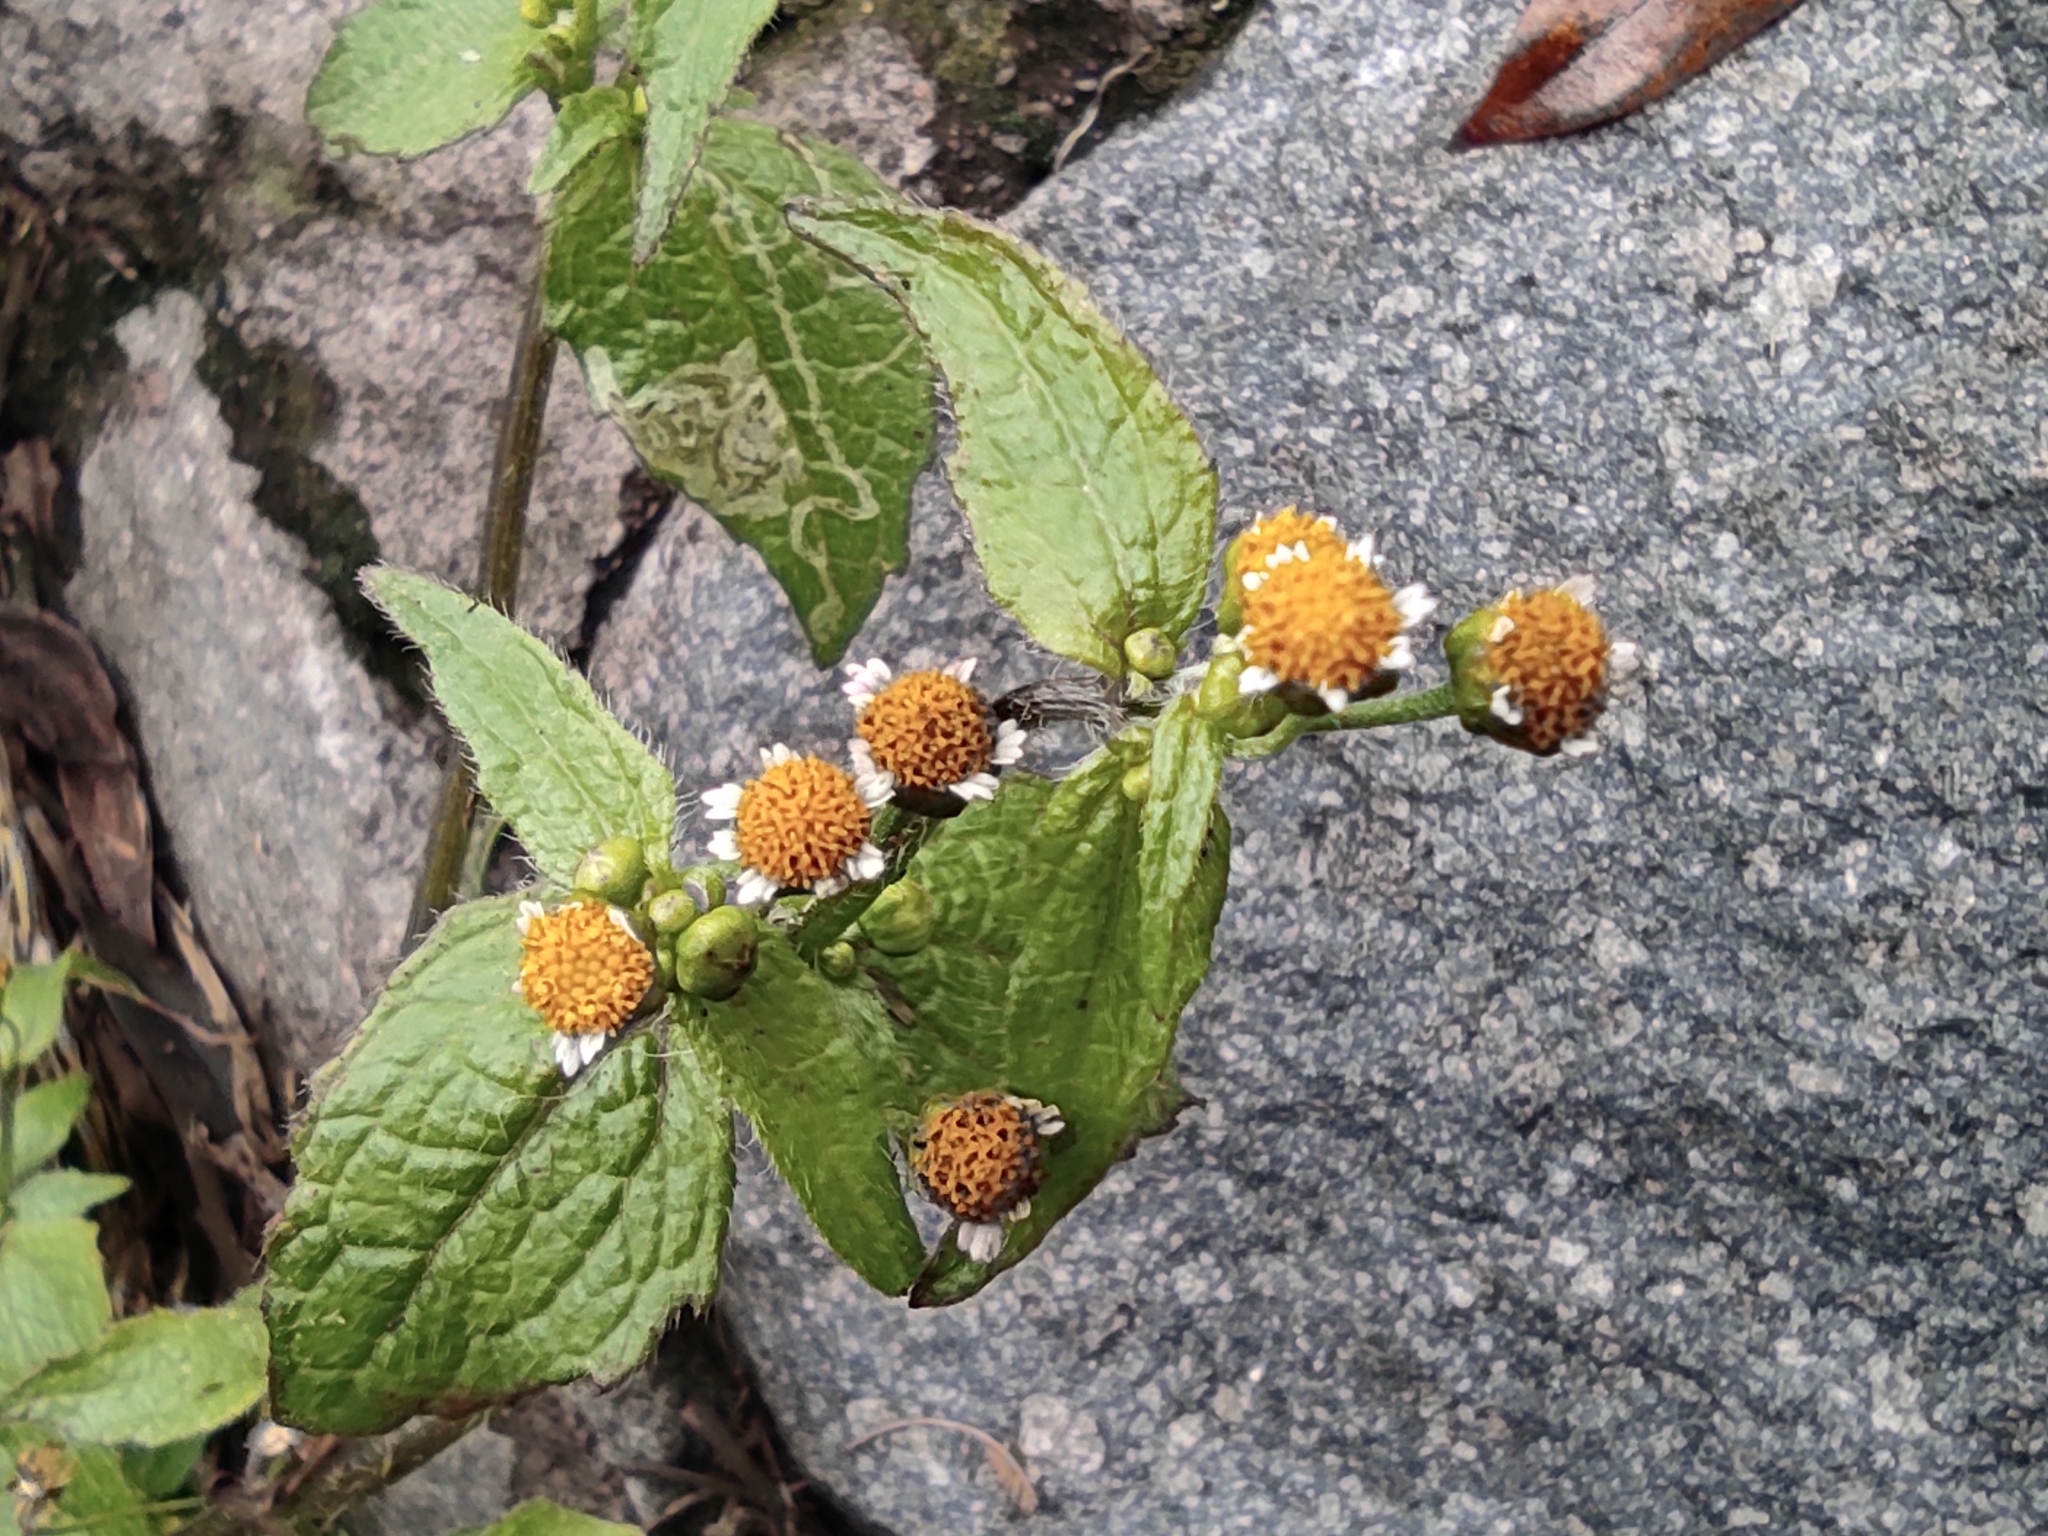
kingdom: Plantae
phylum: Tracheophyta
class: Magnoliopsida
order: Asterales
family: Asteraceae
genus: Galinsoga
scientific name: Galinsoga parviflora
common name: Gallant soldier
